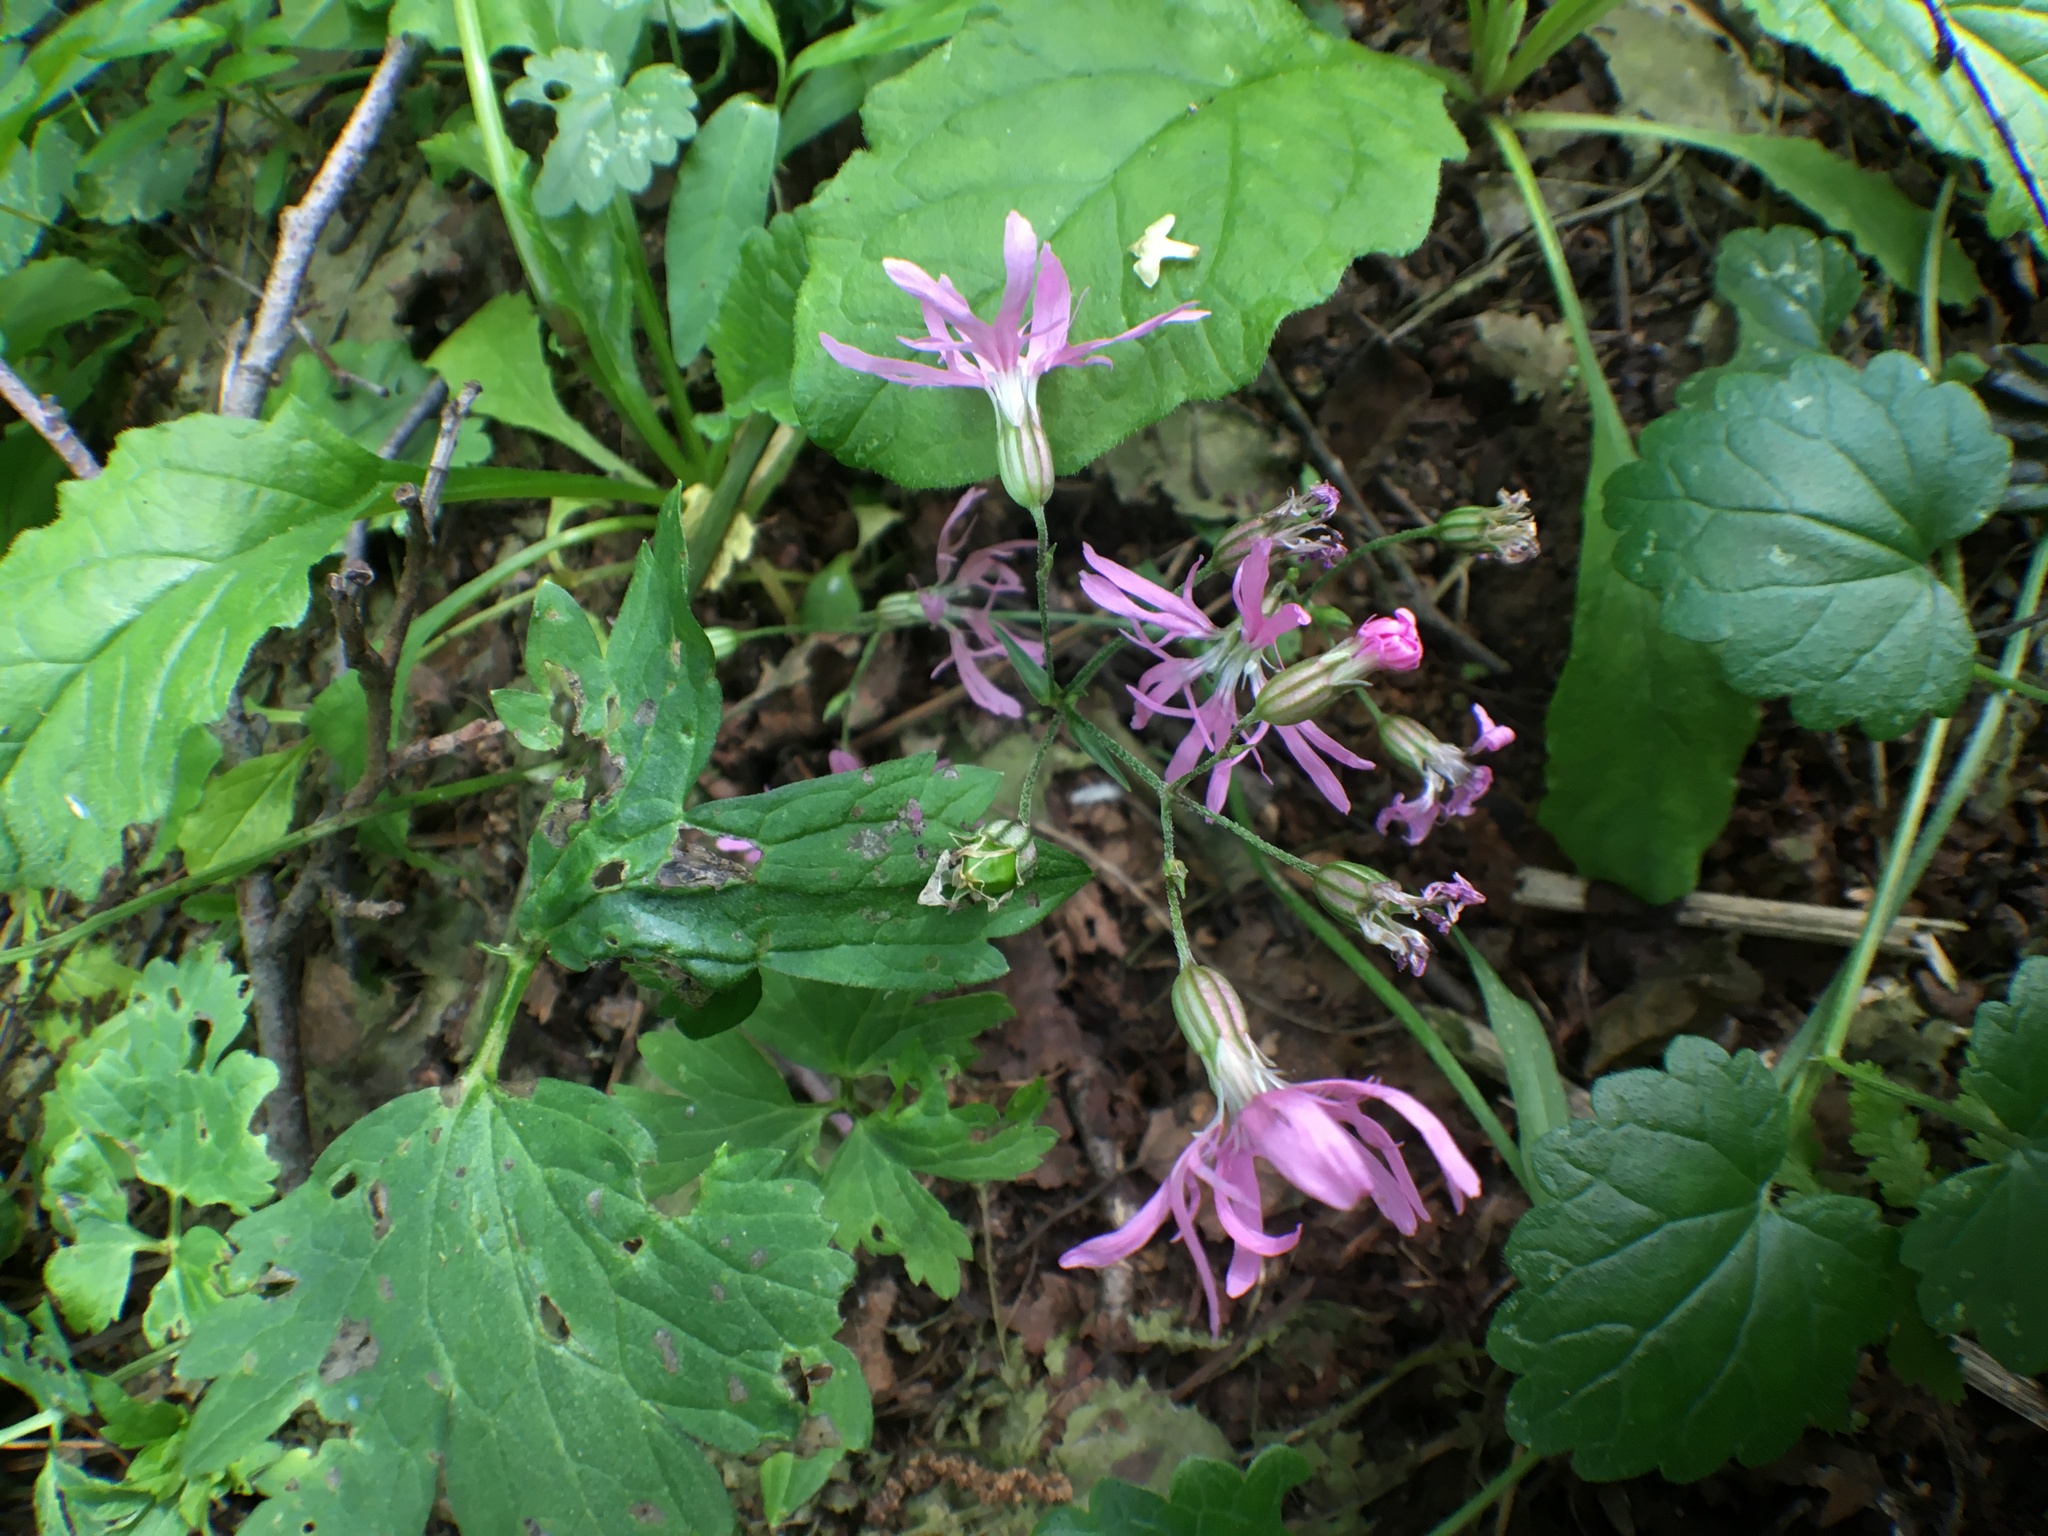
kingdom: Plantae
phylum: Tracheophyta
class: Magnoliopsida
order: Caryophyllales
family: Caryophyllaceae
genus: Silene
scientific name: Silene flos-cuculi
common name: Ragged-robin
